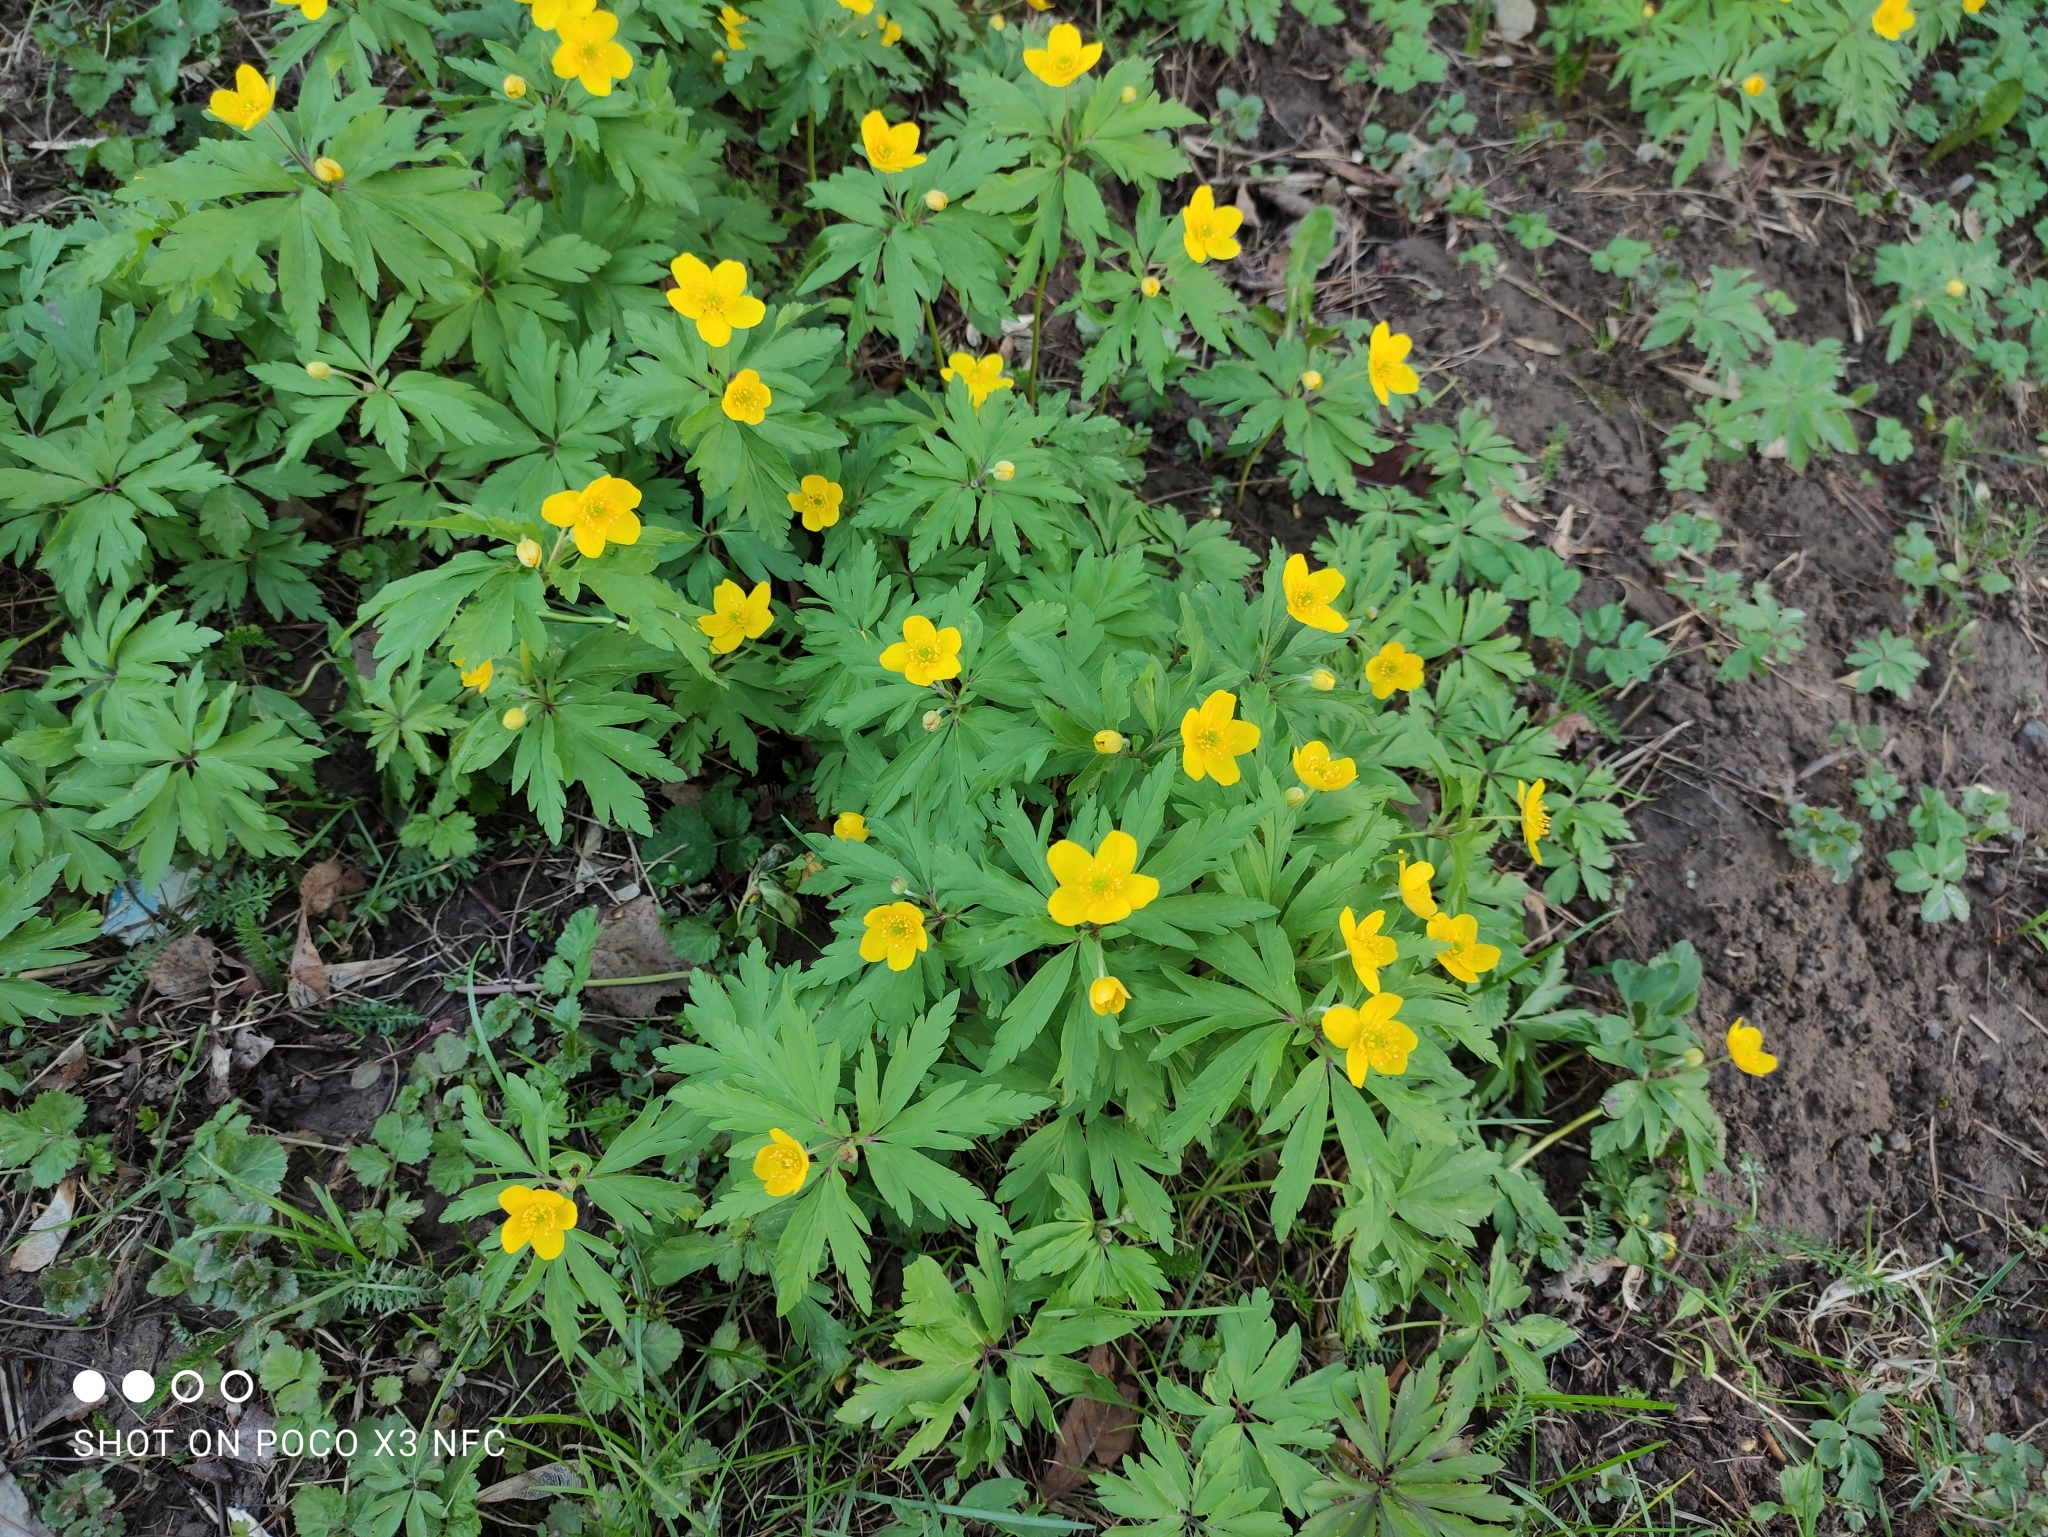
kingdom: Plantae
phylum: Tracheophyta
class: Magnoliopsida
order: Ranunculales
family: Ranunculaceae
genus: Anemone
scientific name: Anemone ranunculoides
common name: Yellow anemone
